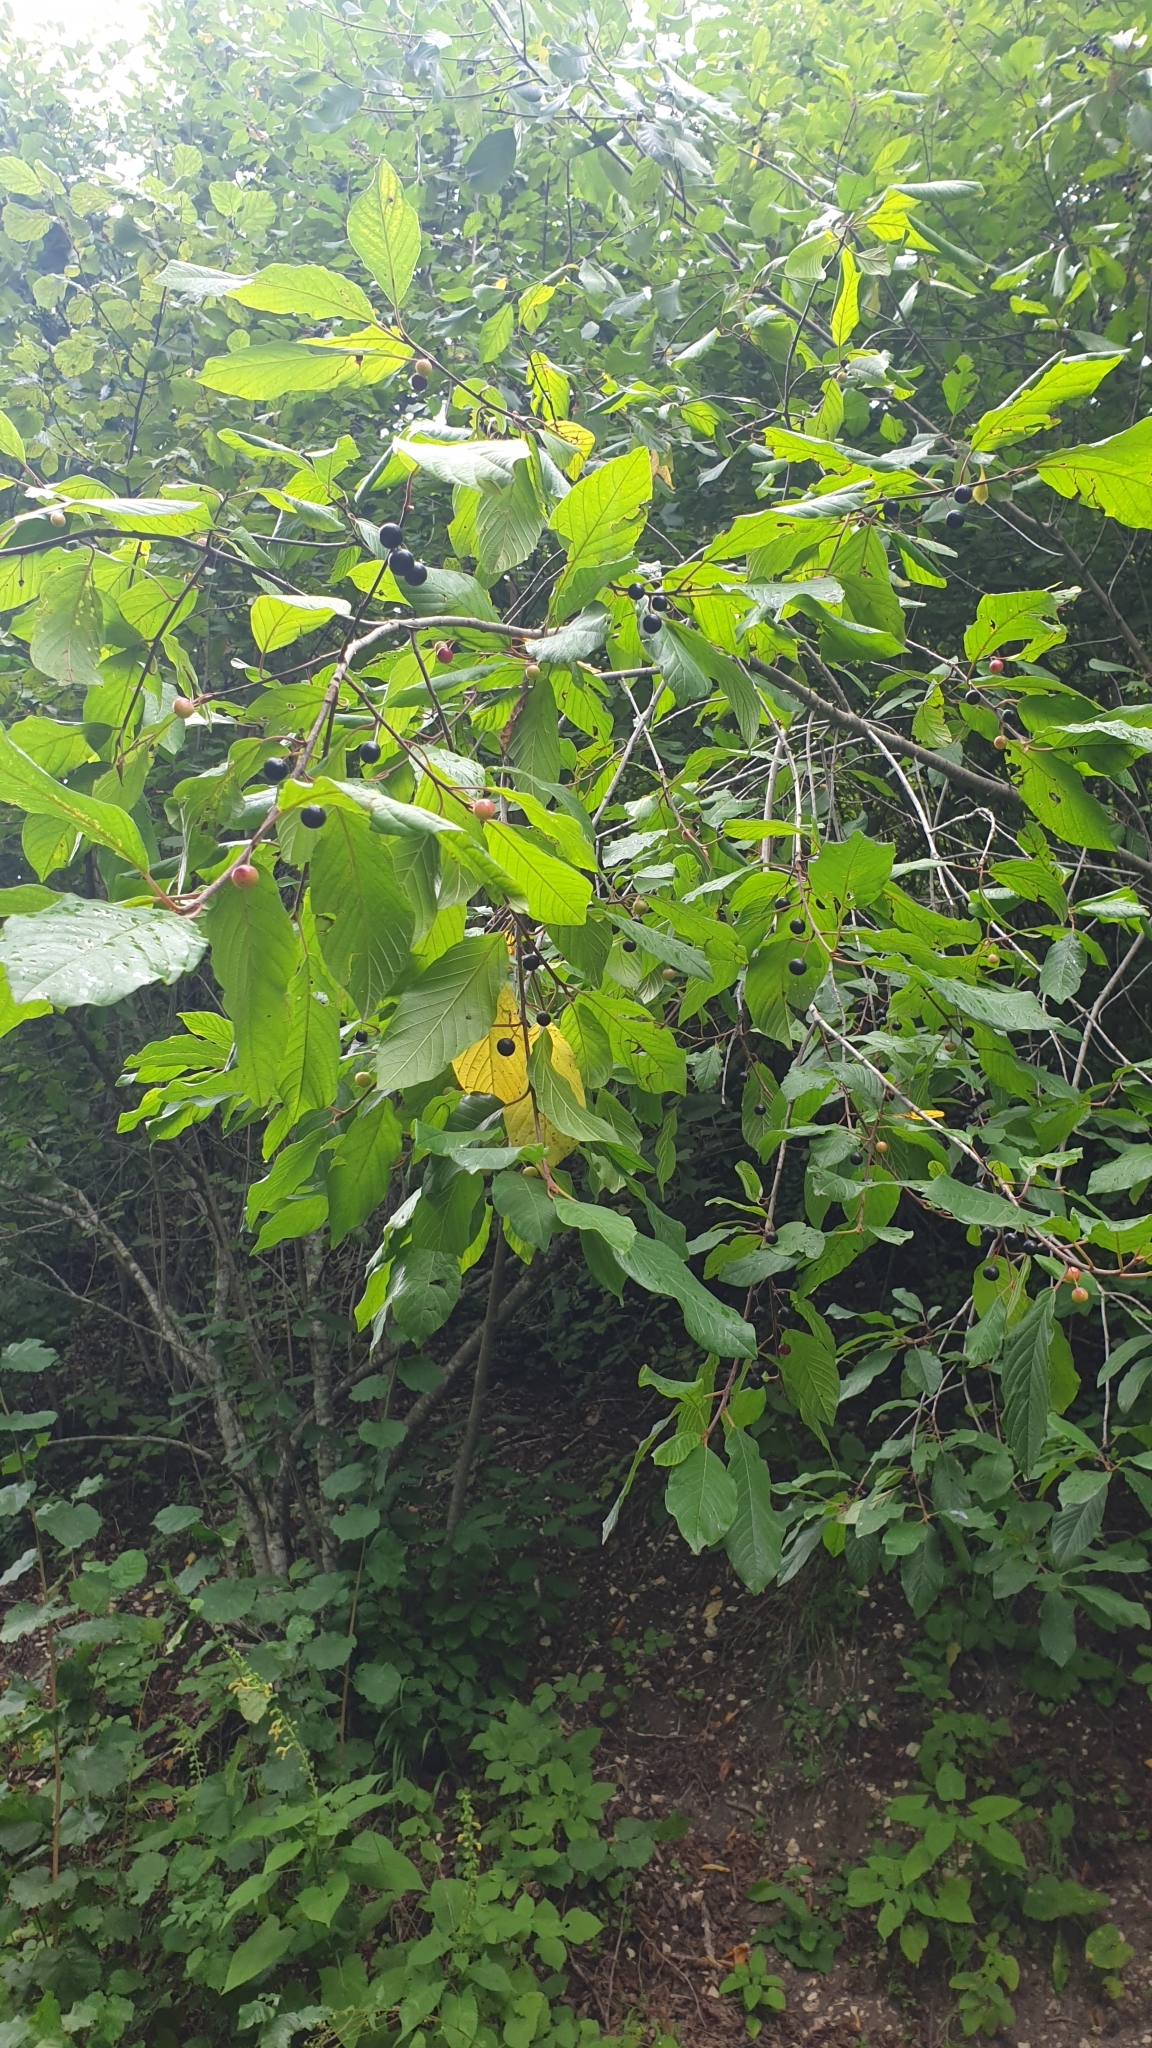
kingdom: Plantae
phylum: Tracheophyta
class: Magnoliopsida
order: Rosales
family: Rhamnaceae
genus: Frangula
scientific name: Frangula alnus
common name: Alder buckthorn
